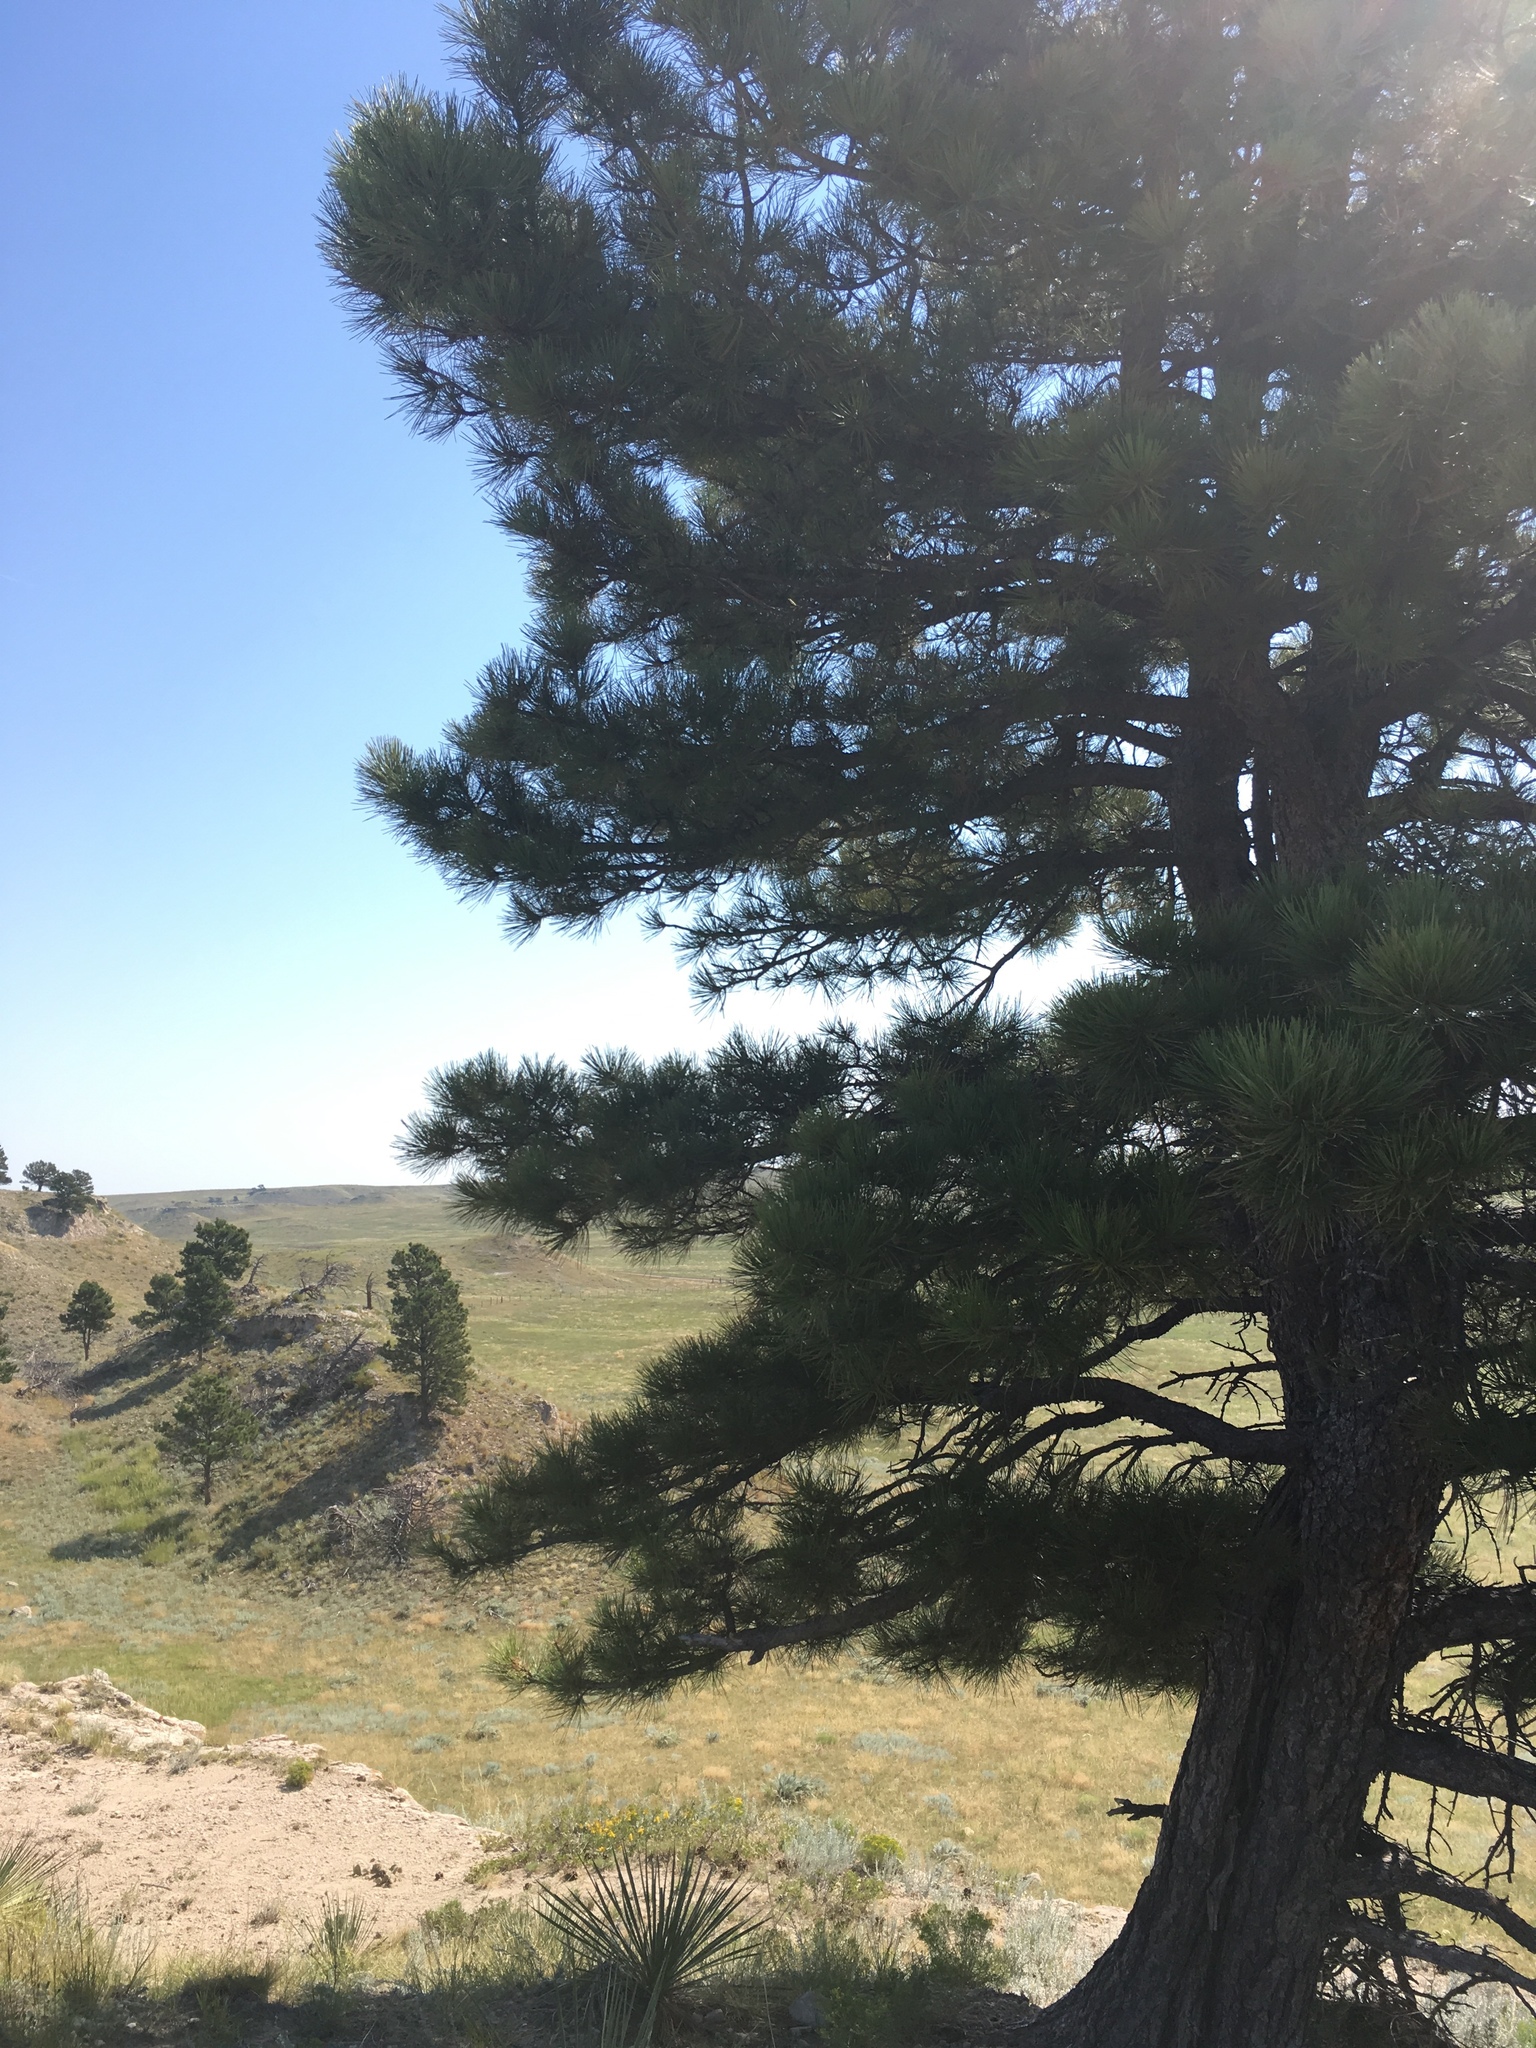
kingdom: Plantae
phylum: Tracheophyta
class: Pinopsida
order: Pinales
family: Pinaceae
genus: Pinus
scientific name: Pinus ponderosa
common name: Western yellow-pine
